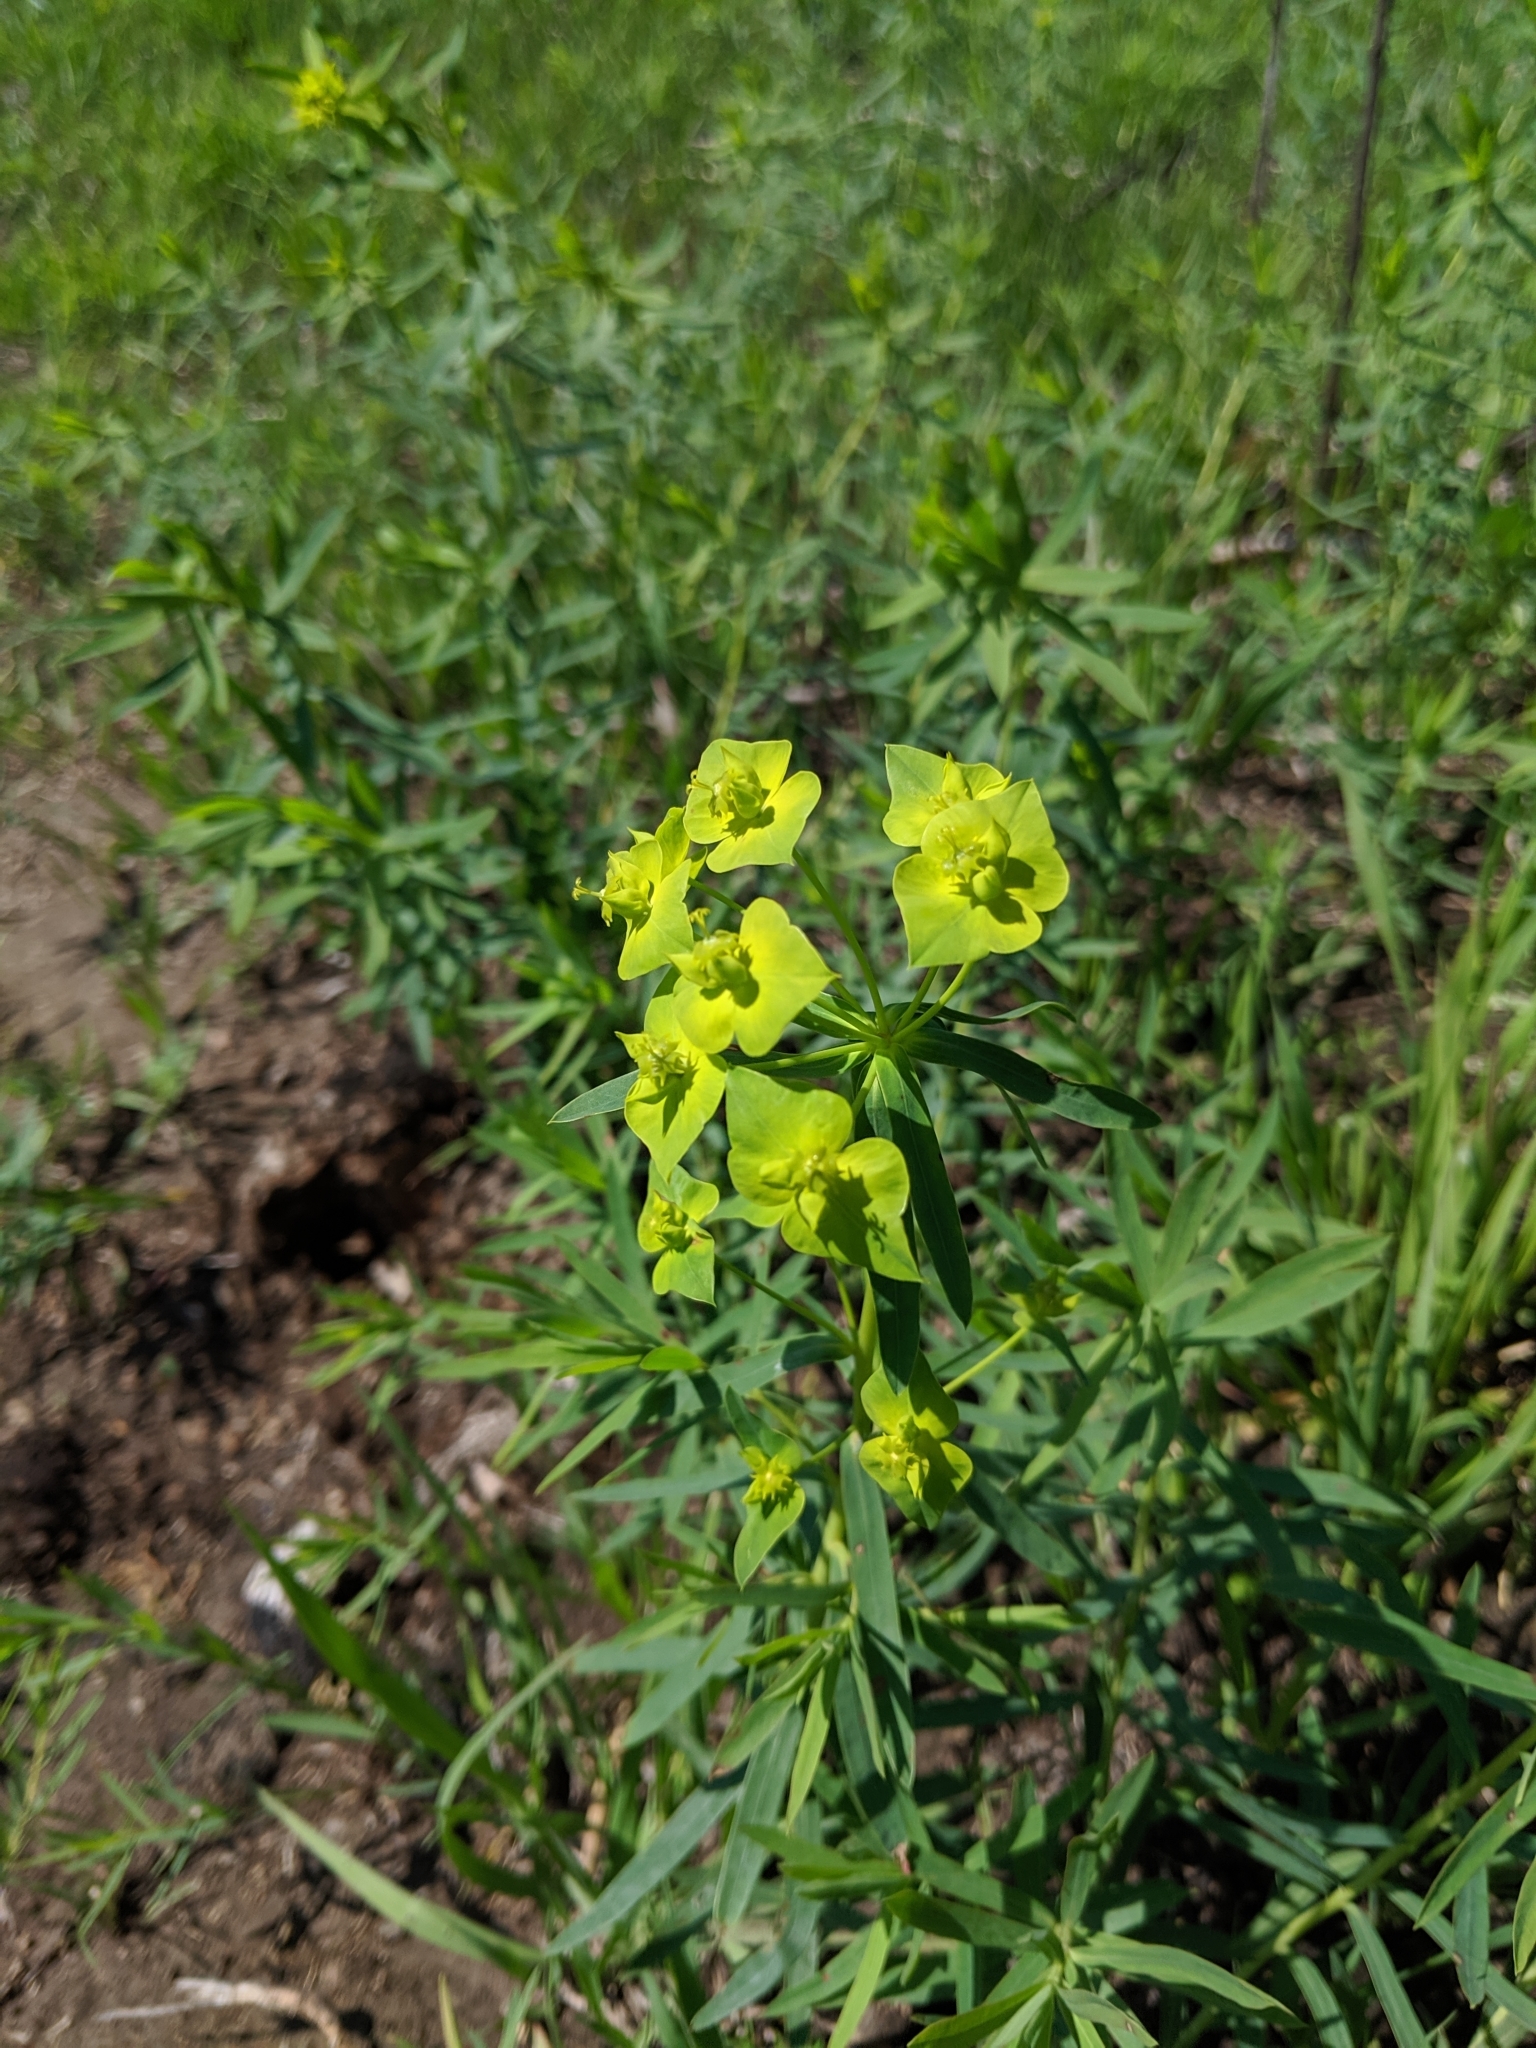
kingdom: Plantae
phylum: Tracheophyta
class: Magnoliopsida
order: Malpighiales
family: Euphorbiaceae
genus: Euphorbia
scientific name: Euphorbia virgata
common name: Leafy spurge
